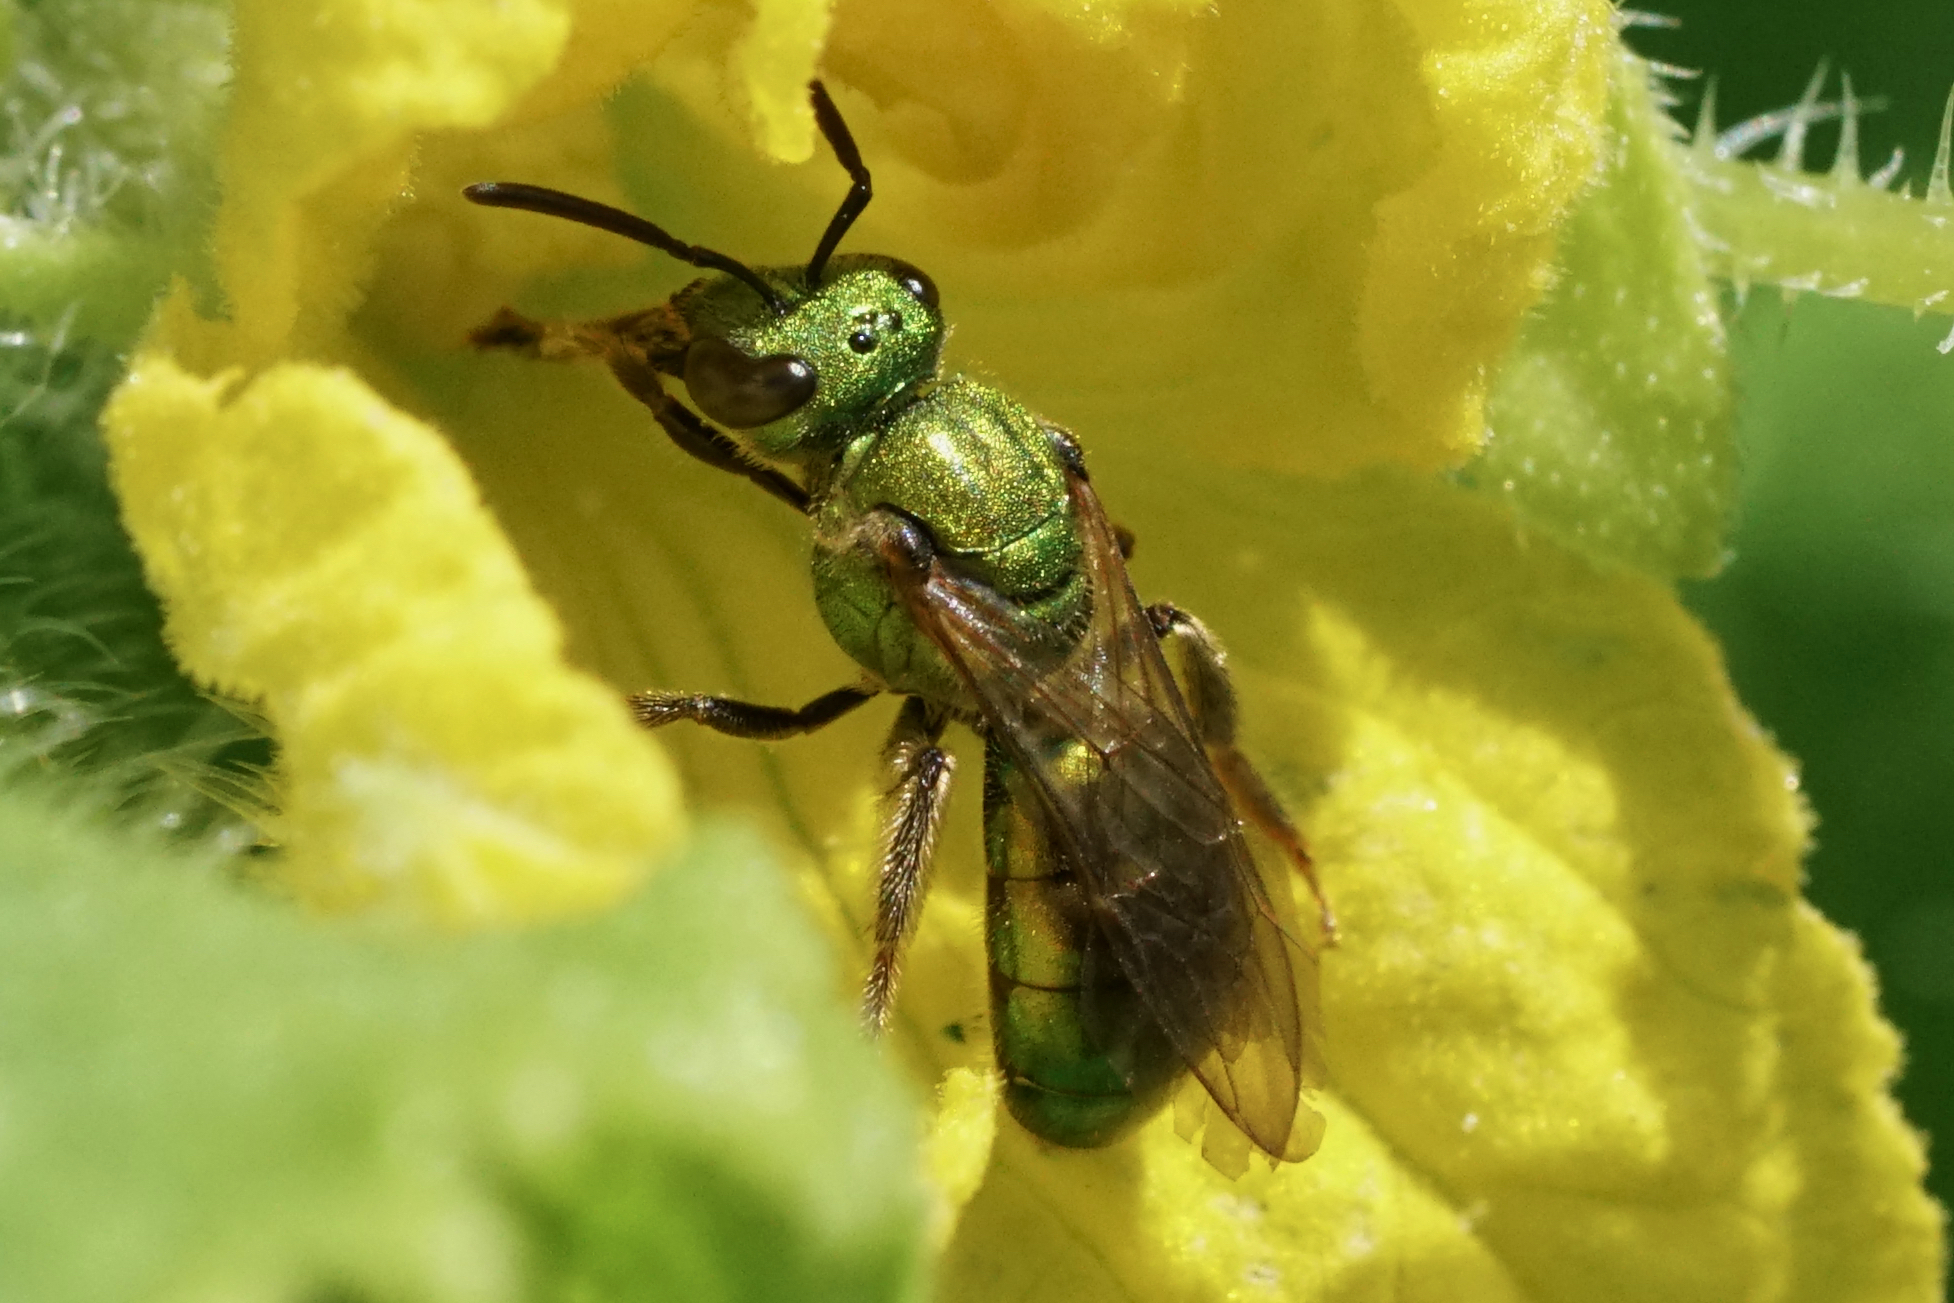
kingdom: Animalia
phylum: Arthropoda
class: Insecta
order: Hymenoptera
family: Halictidae
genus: Augochlora
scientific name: Augochlora pura
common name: Pure green sweat bee
